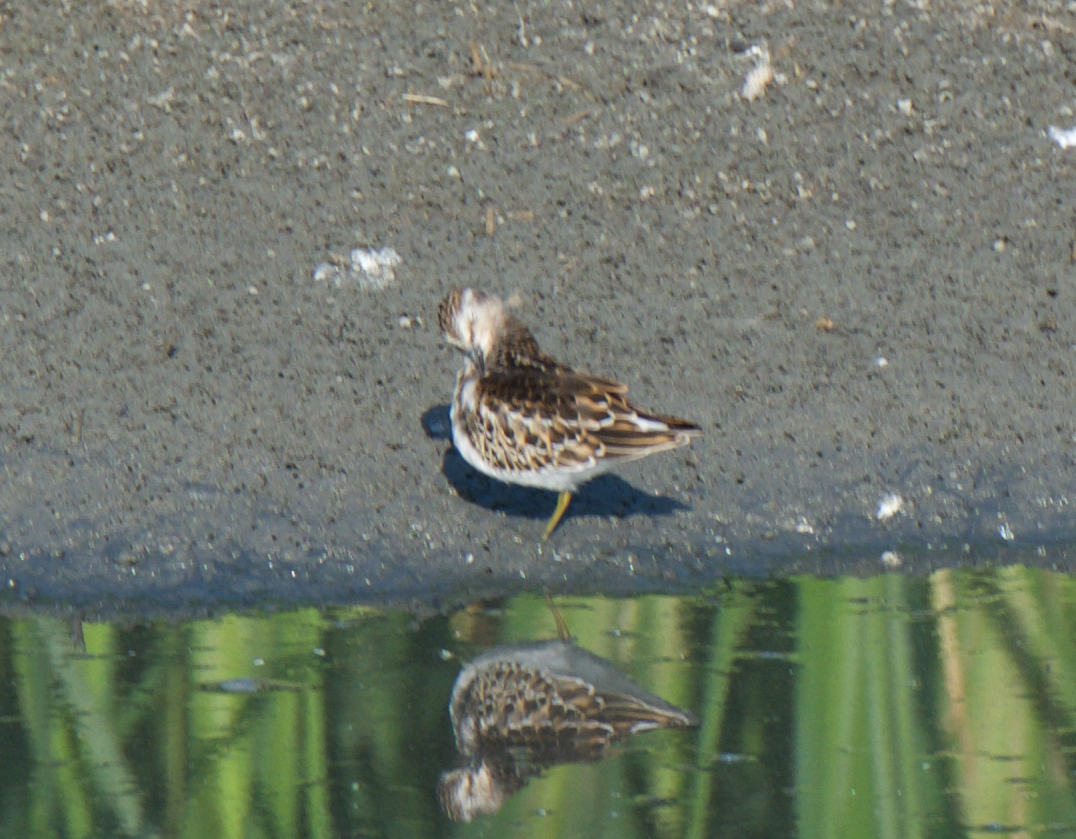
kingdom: Animalia
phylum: Chordata
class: Aves
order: Charadriiformes
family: Scolopacidae
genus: Calidris
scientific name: Calidris minutilla
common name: Least sandpiper
